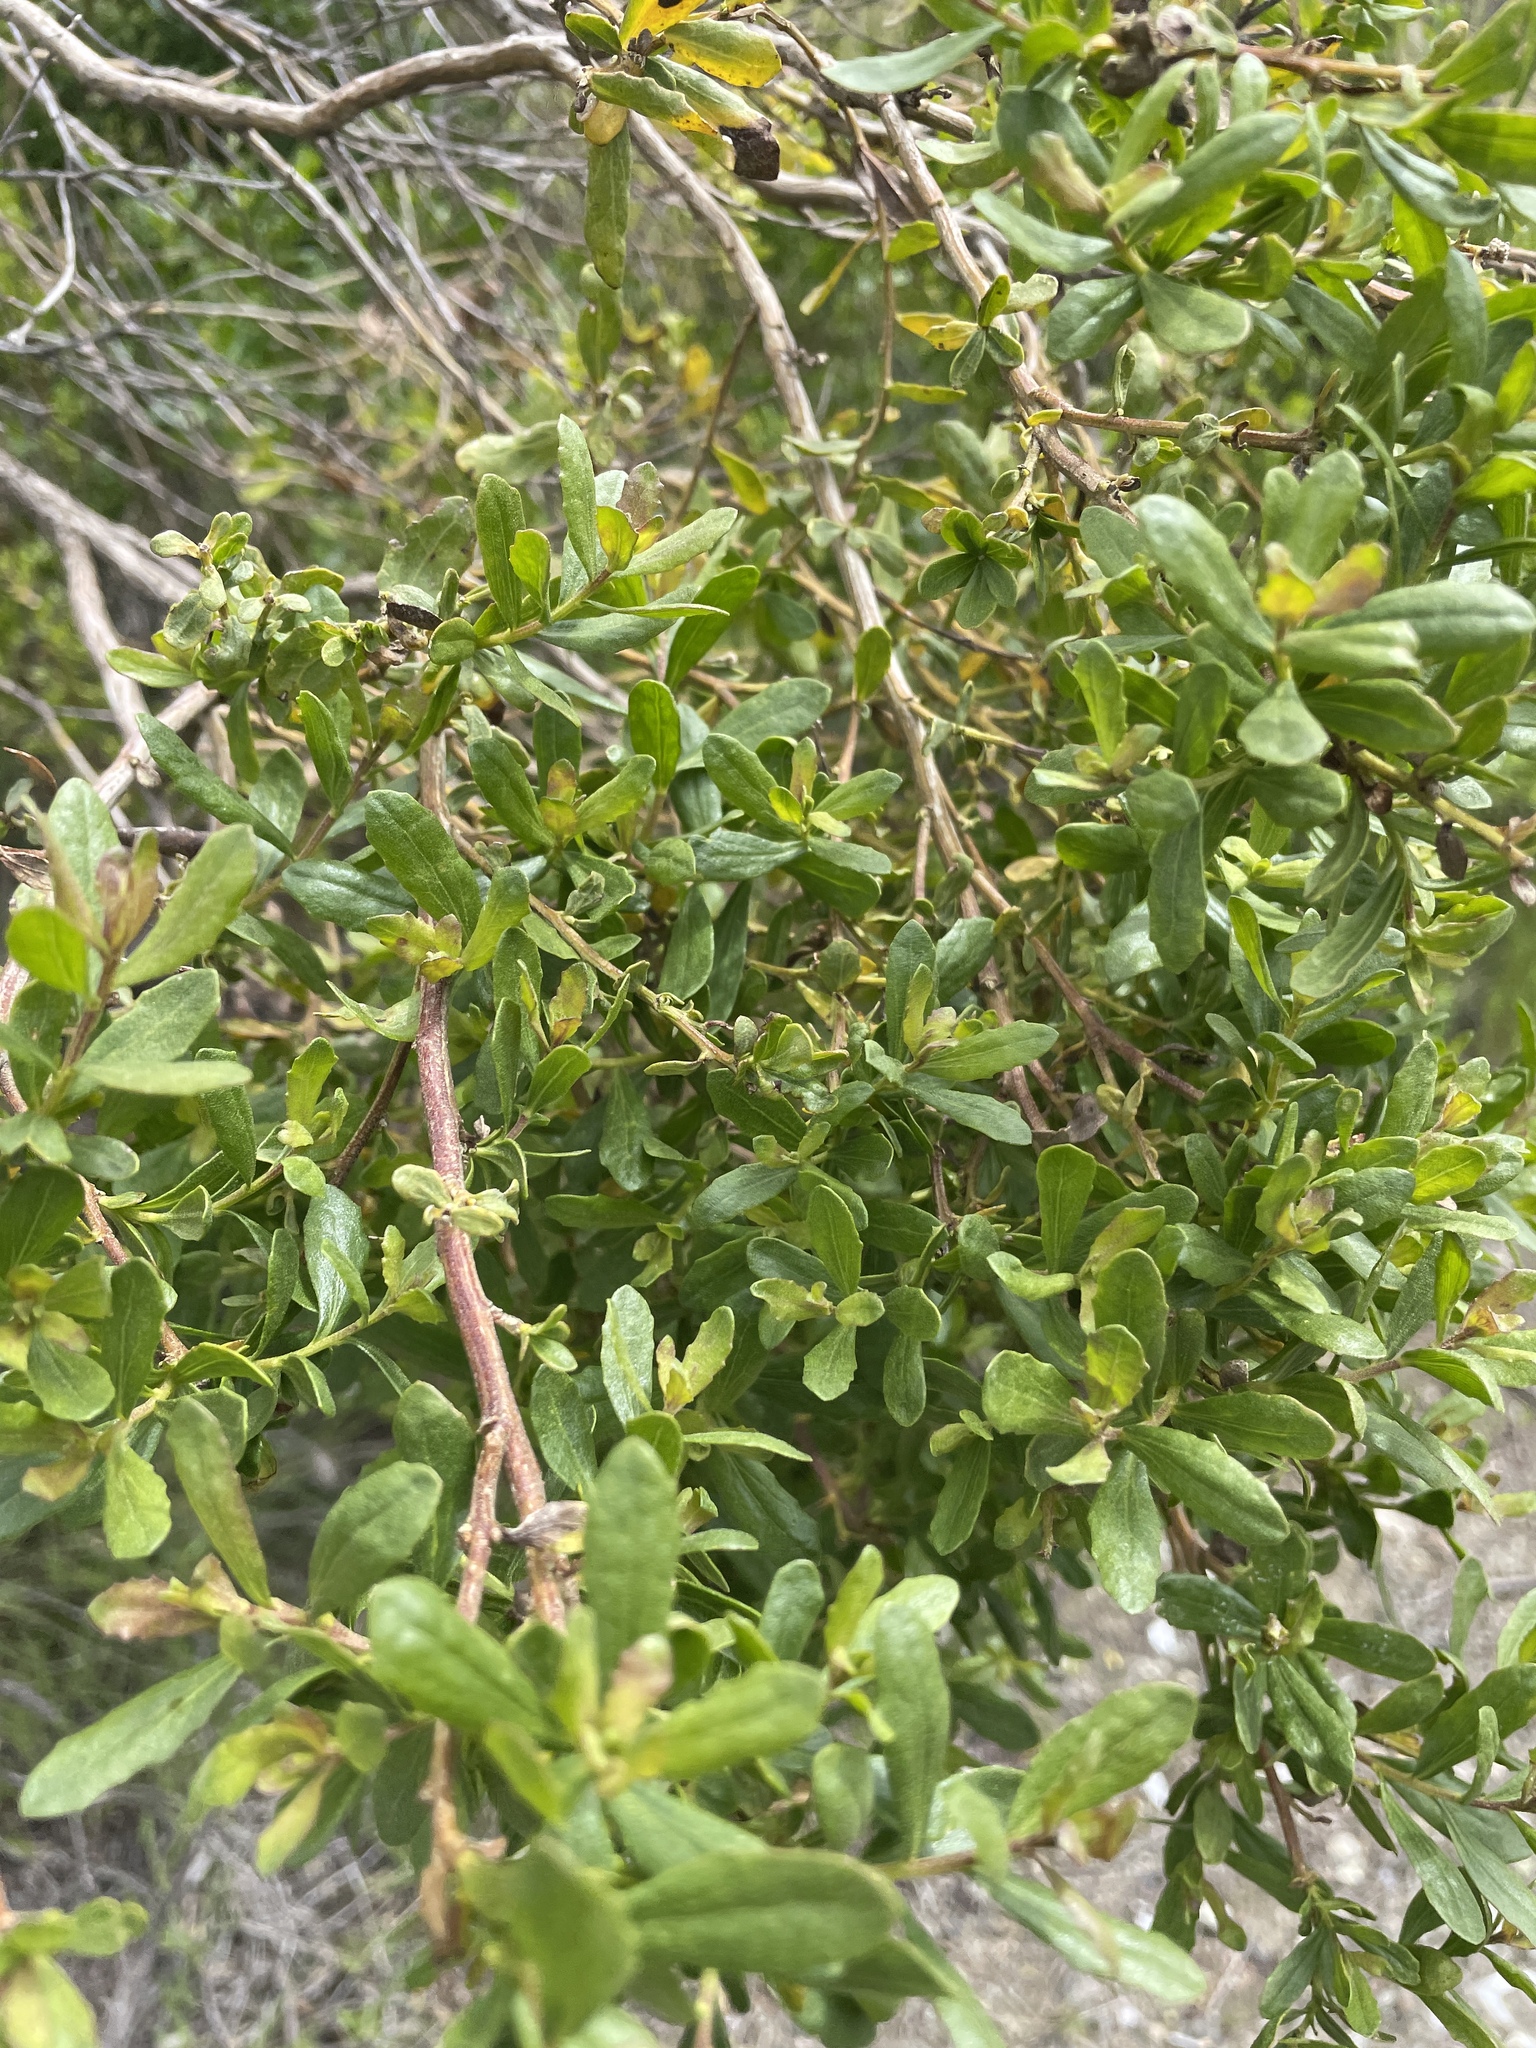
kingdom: Plantae
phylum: Tracheophyta
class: Magnoliopsida
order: Asterales
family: Asteraceae
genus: Baccharis
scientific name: Baccharis pilularis
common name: Coyotebrush
